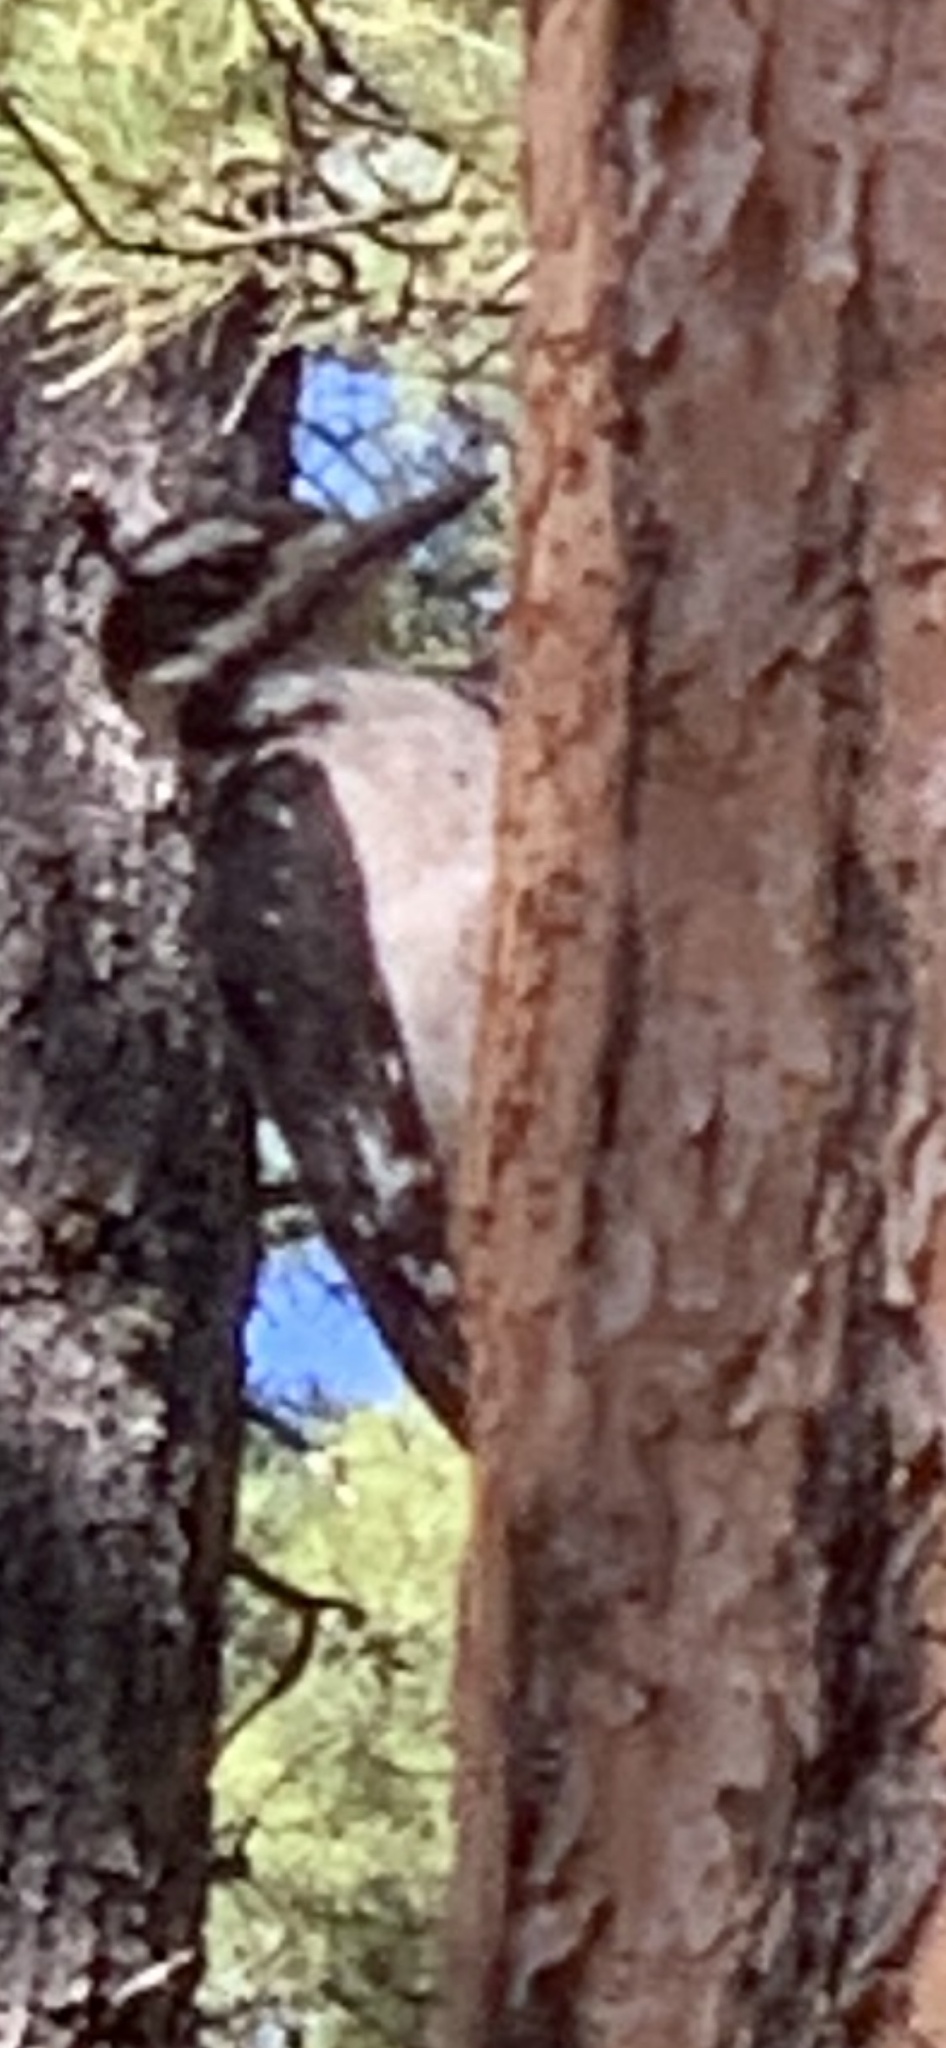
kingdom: Animalia
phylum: Chordata
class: Aves
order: Piciformes
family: Picidae
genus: Leuconotopicus
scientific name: Leuconotopicus villosus
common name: Hairy woodpecker
